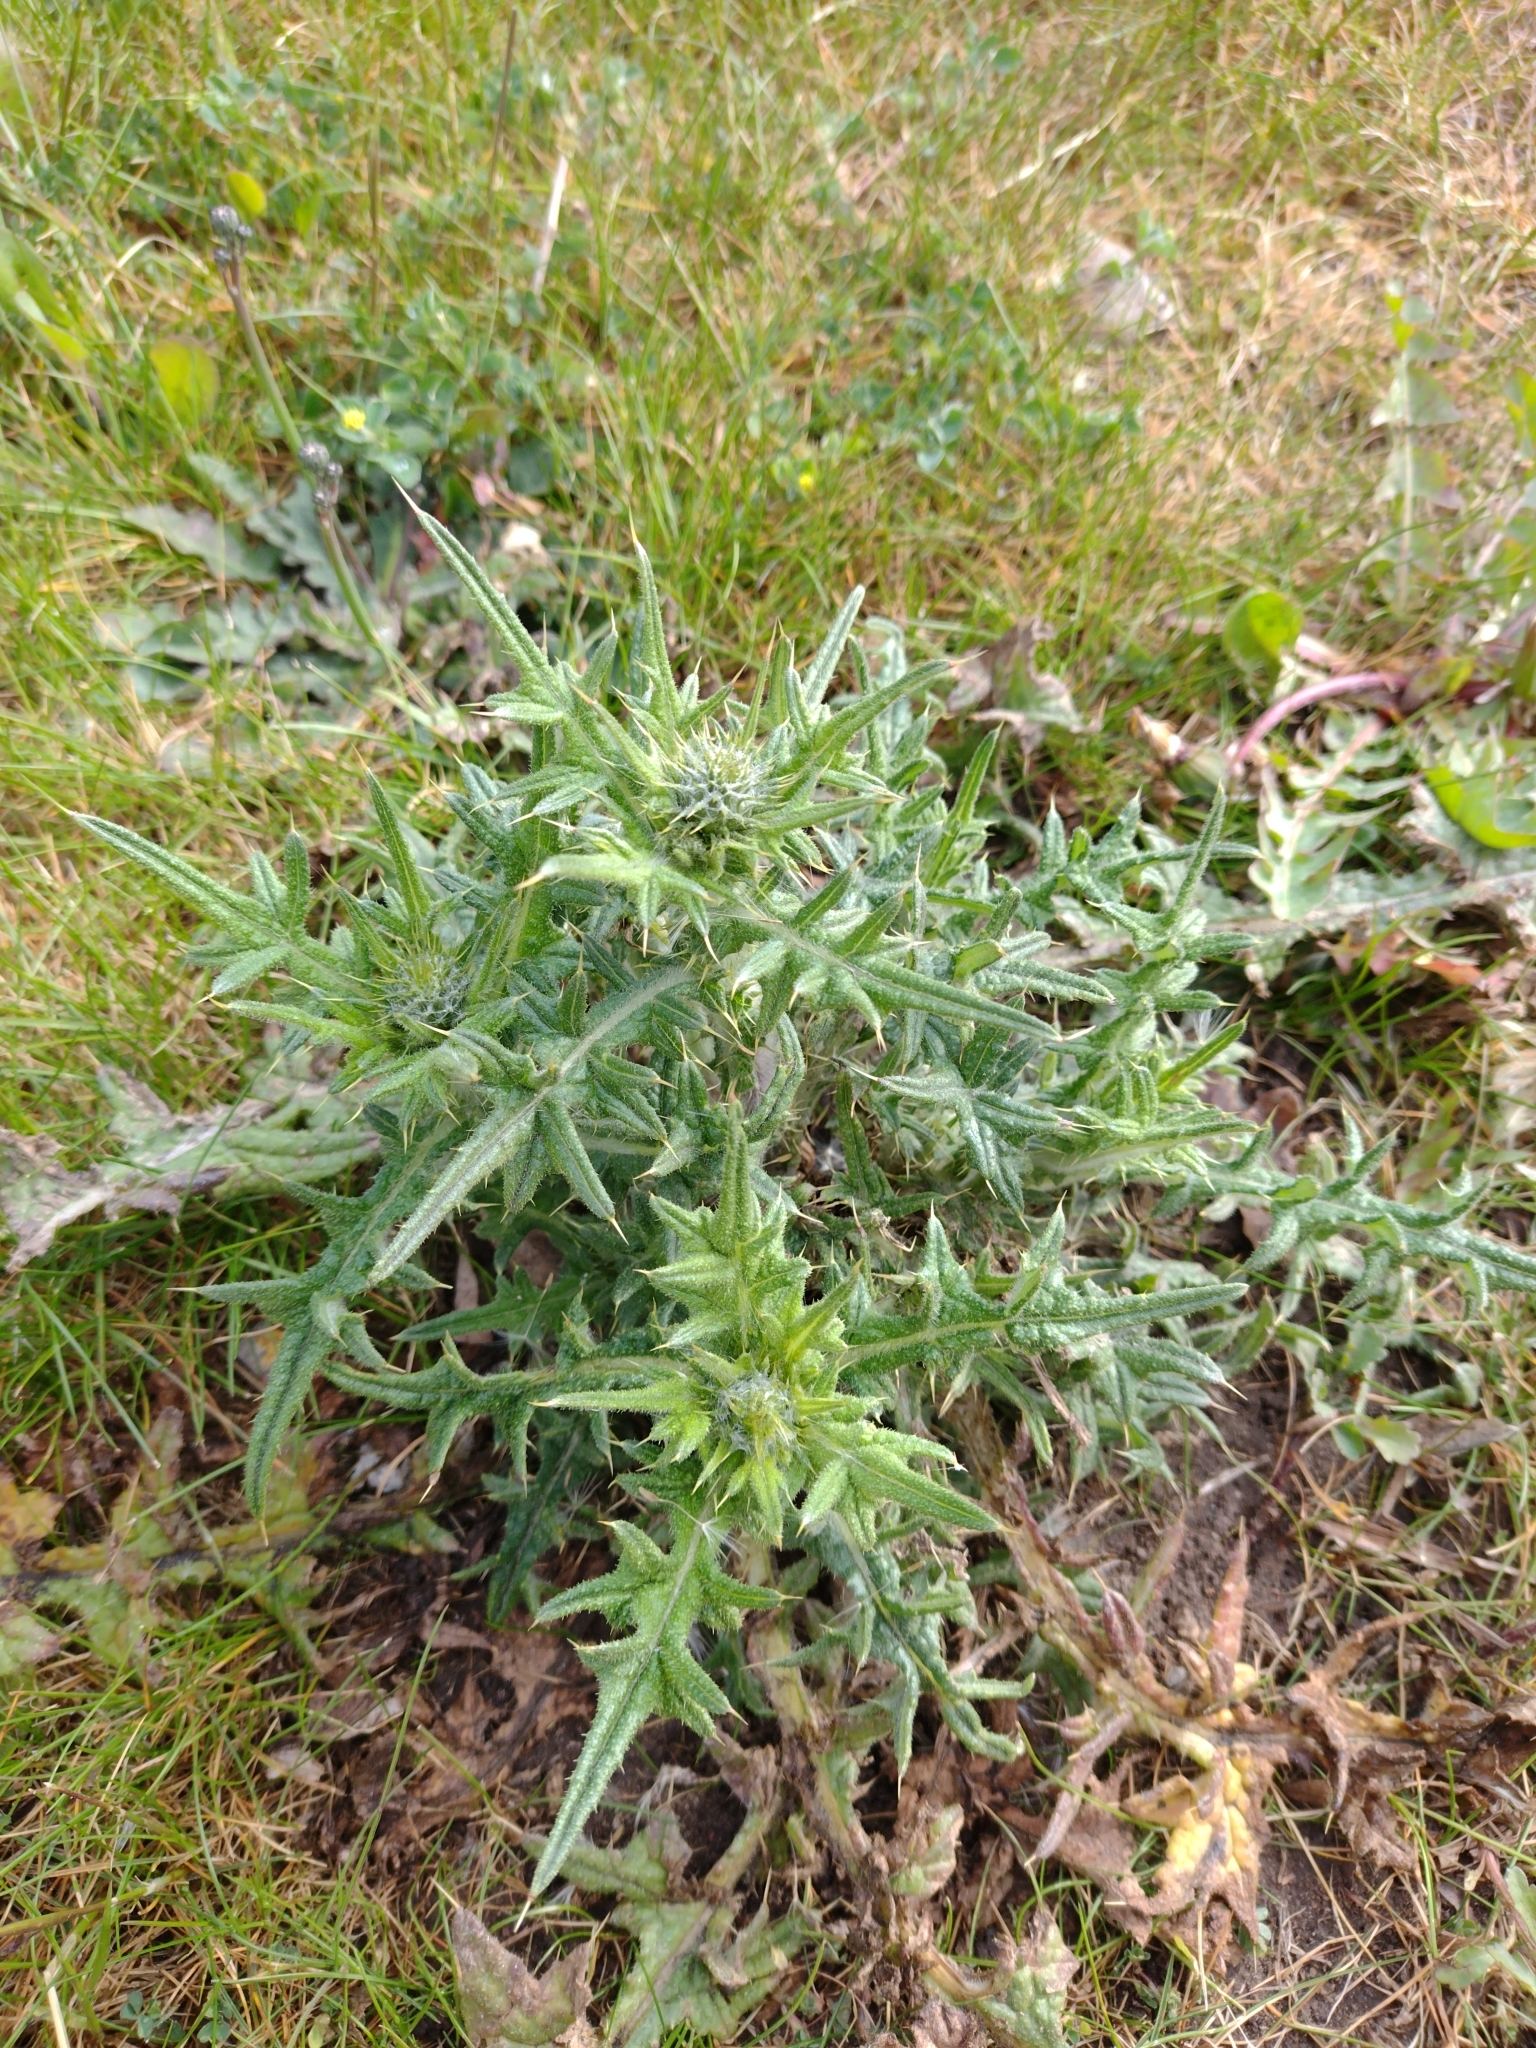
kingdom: Plantae
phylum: Tracheophyta
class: Magnoliopsida
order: Asterales
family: Asteraceae
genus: Cirsium
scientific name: Cirsium vulgare
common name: Bull thistle
